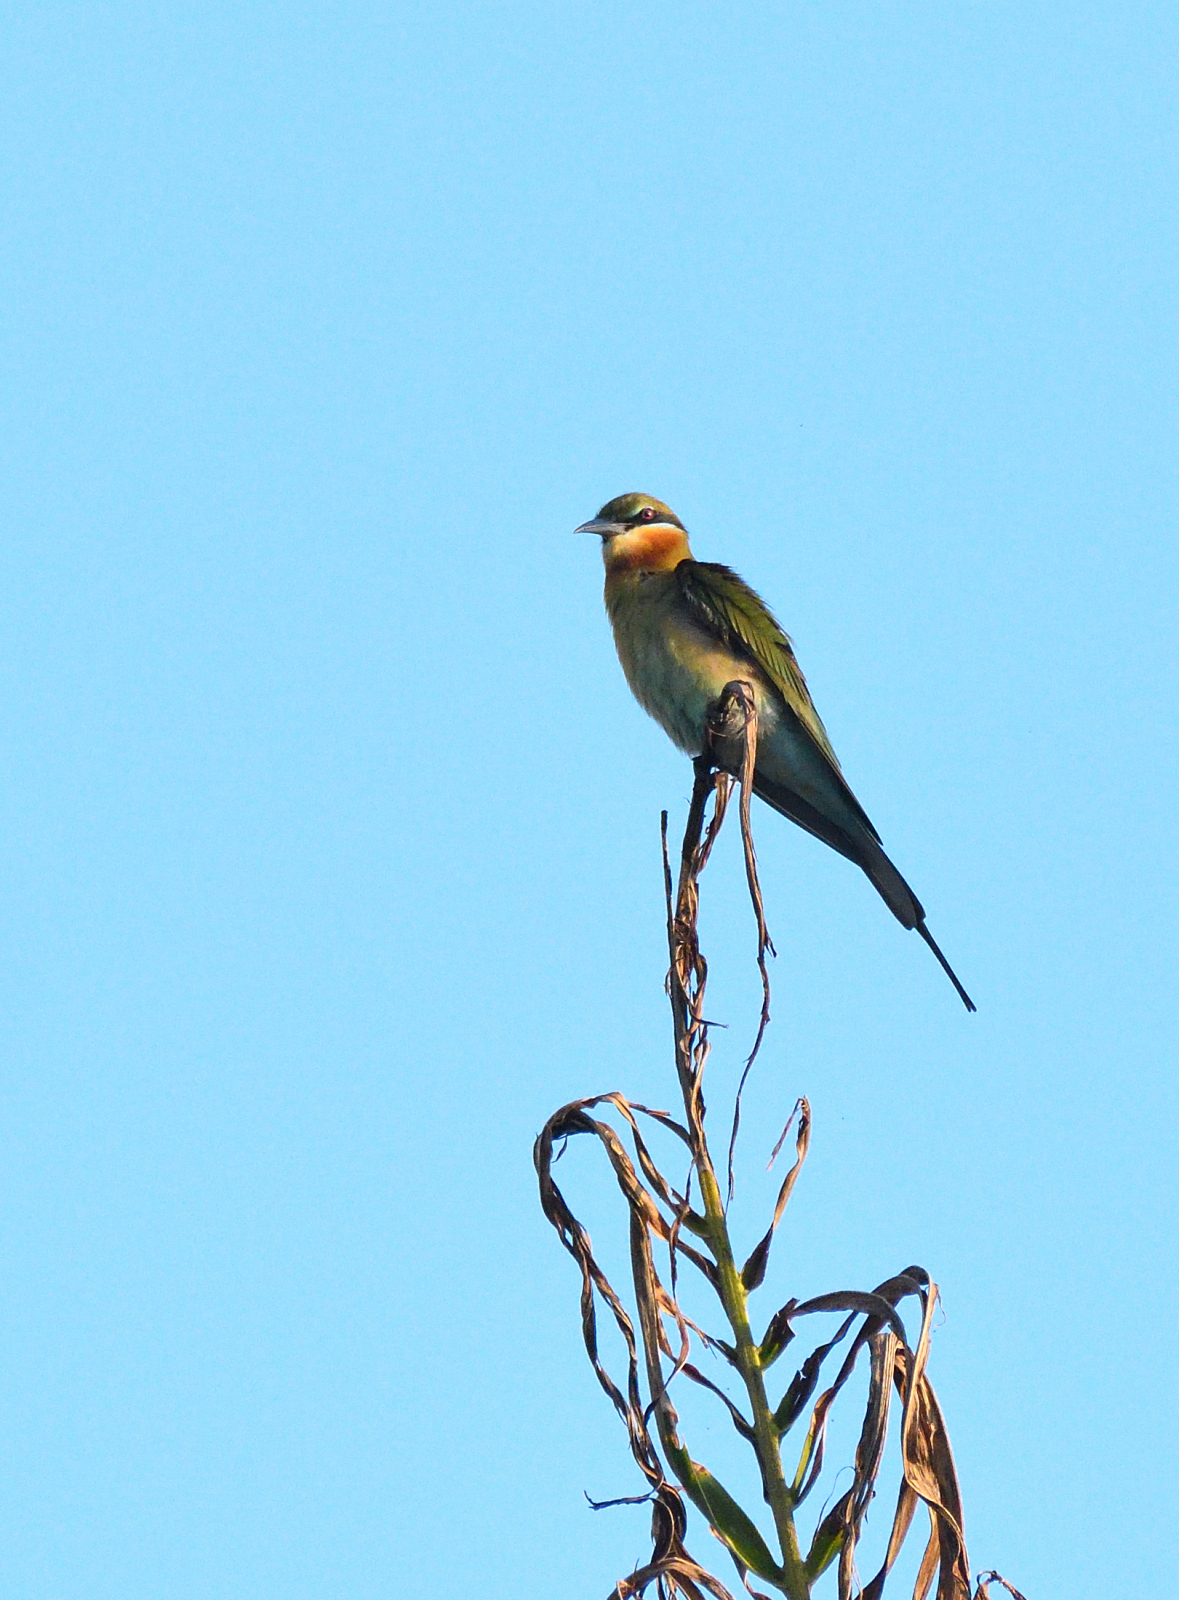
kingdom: Animalia
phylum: Chordata
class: Aves
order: Coraciiformes
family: Meropidae
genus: Merops
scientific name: Merops philippinus
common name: Blue-tailed bee-eater
